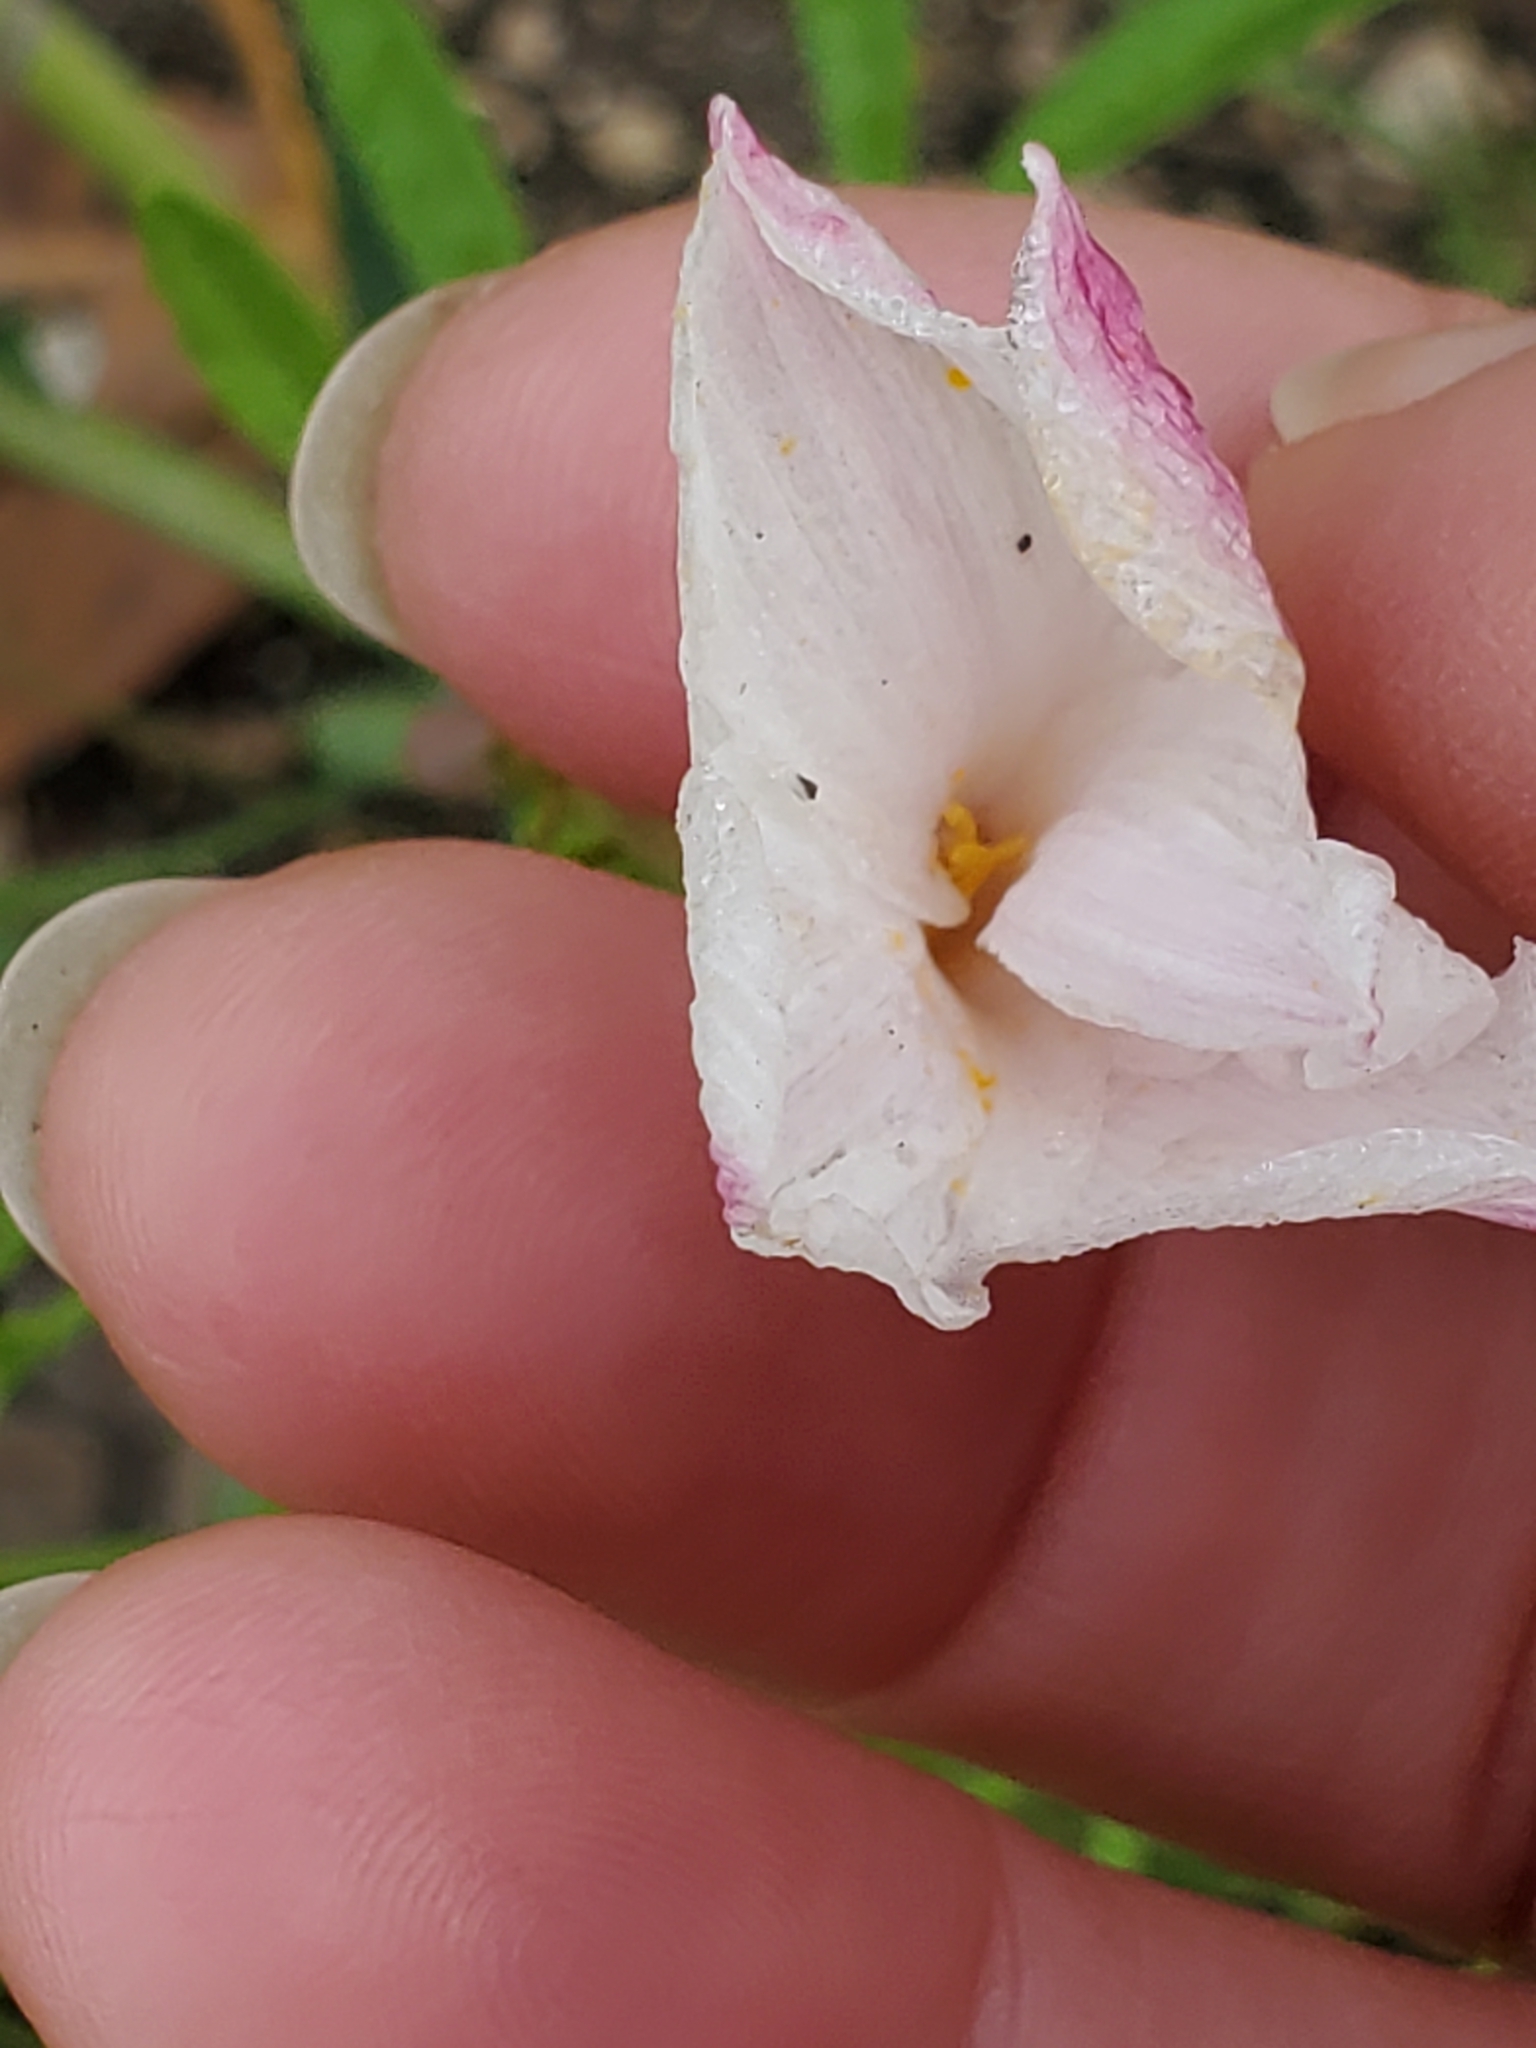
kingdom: Plantae
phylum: Tracheophyta
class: Liliopsida
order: Asparagales
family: Amaryllidaceae
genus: Zephyranthes
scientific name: Zephyranthes drummondii
